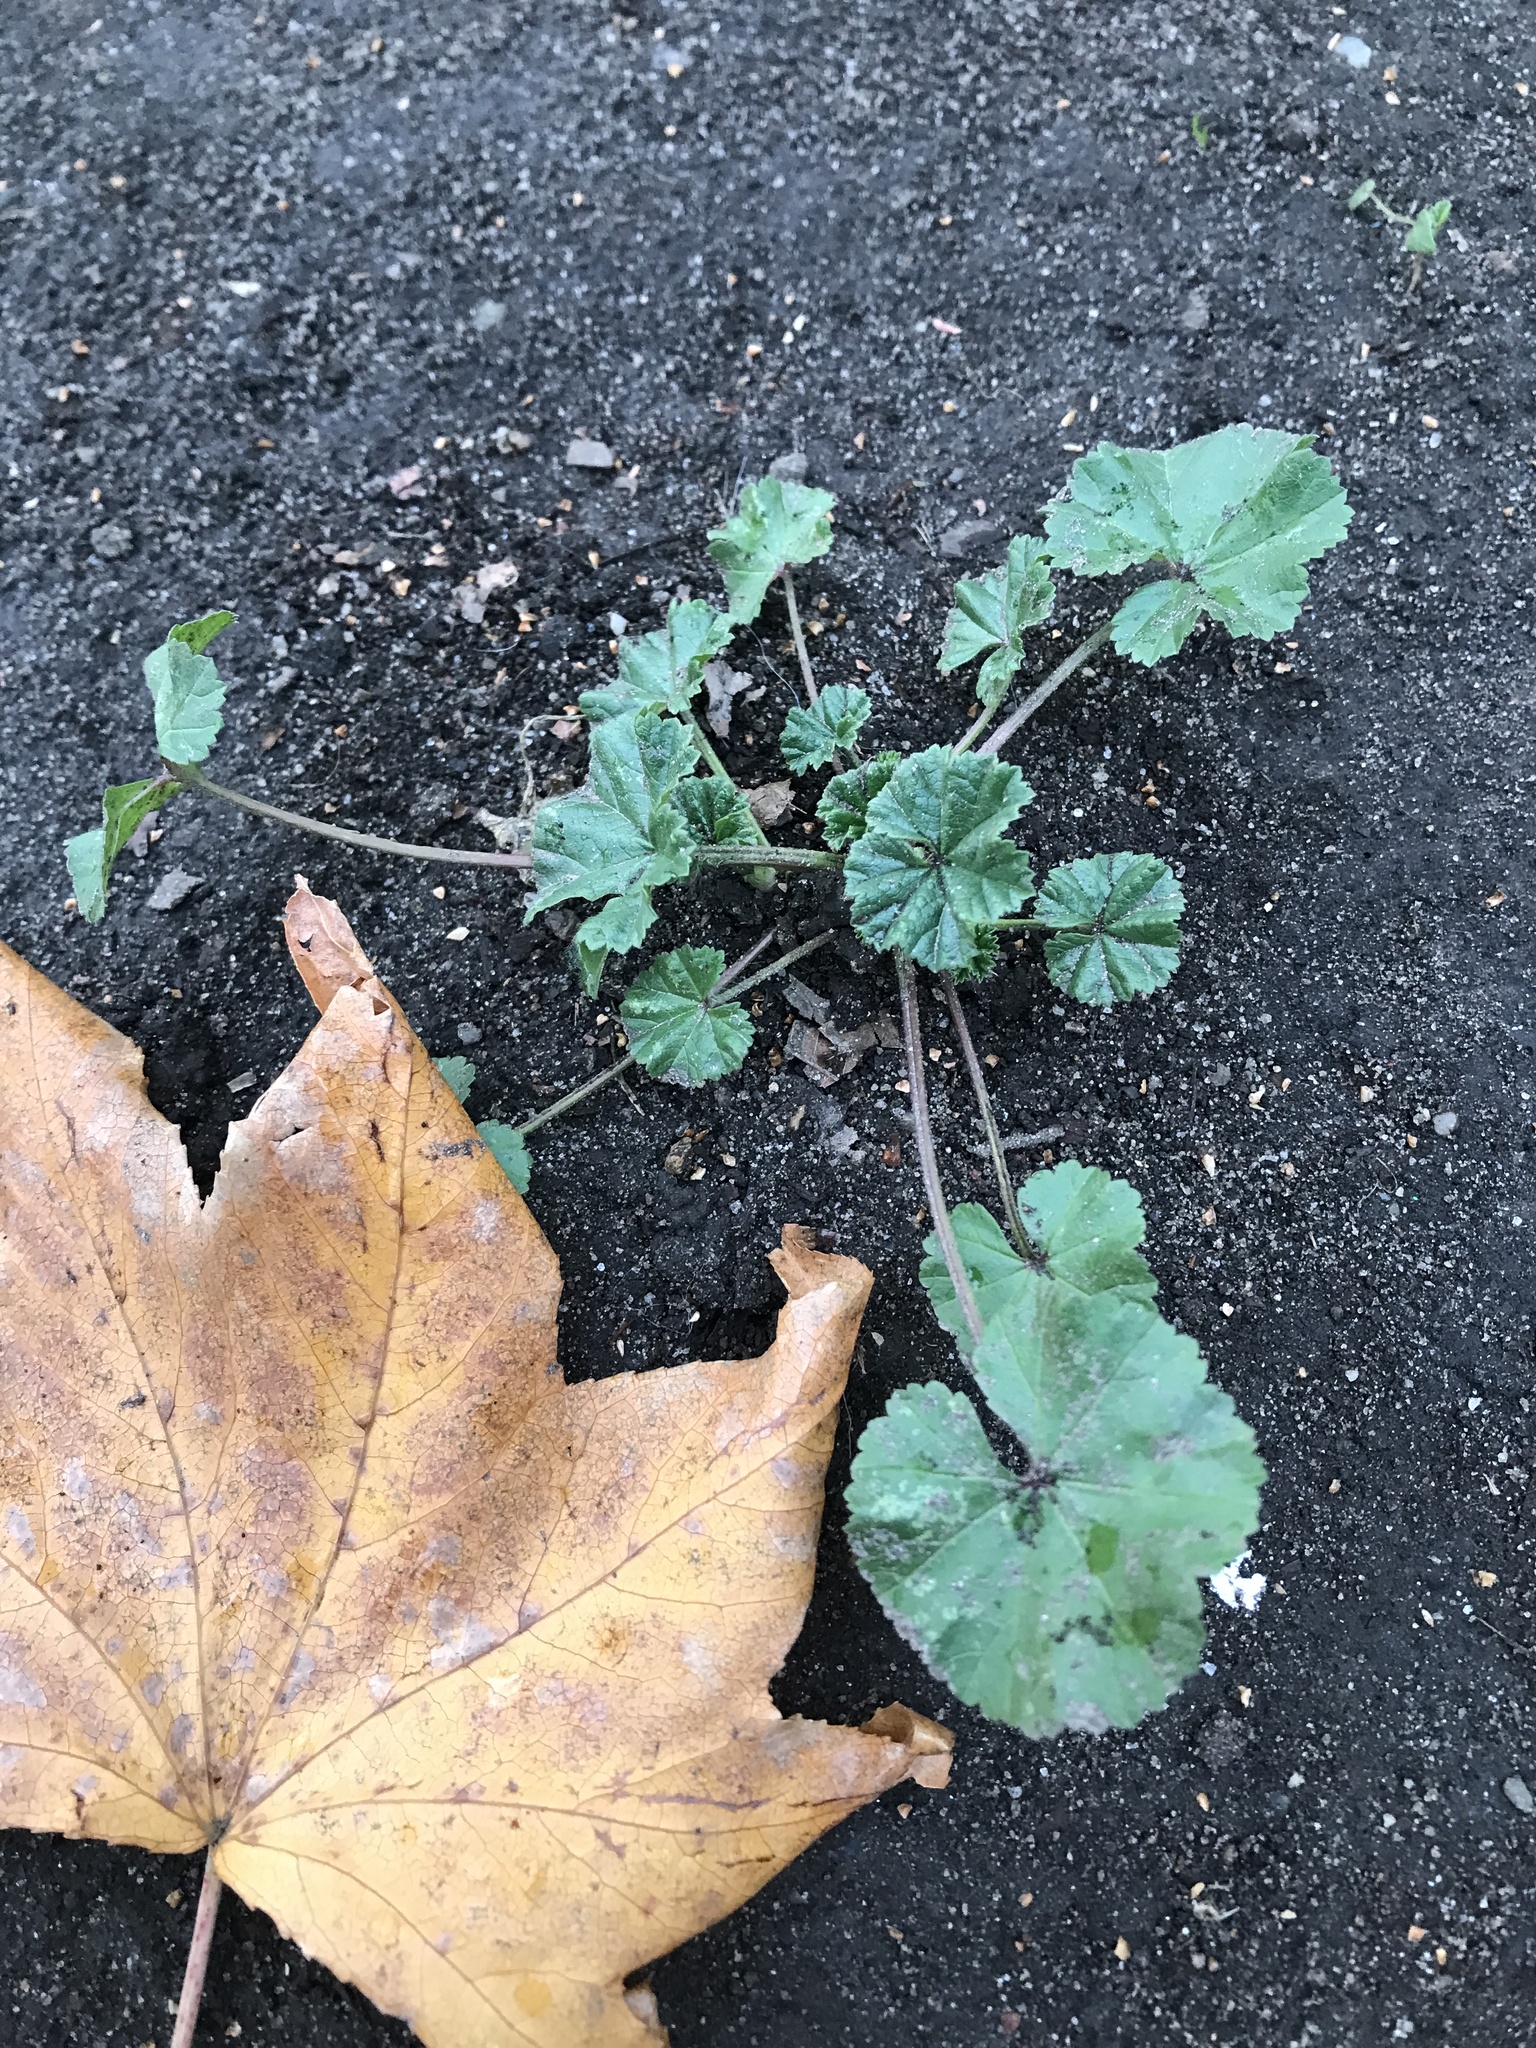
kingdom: Plantae
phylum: Tracheophyta
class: Magnoliopsida
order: Malvales
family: Malvaceae
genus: Malva
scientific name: Malva neglecta
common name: Common mallow
